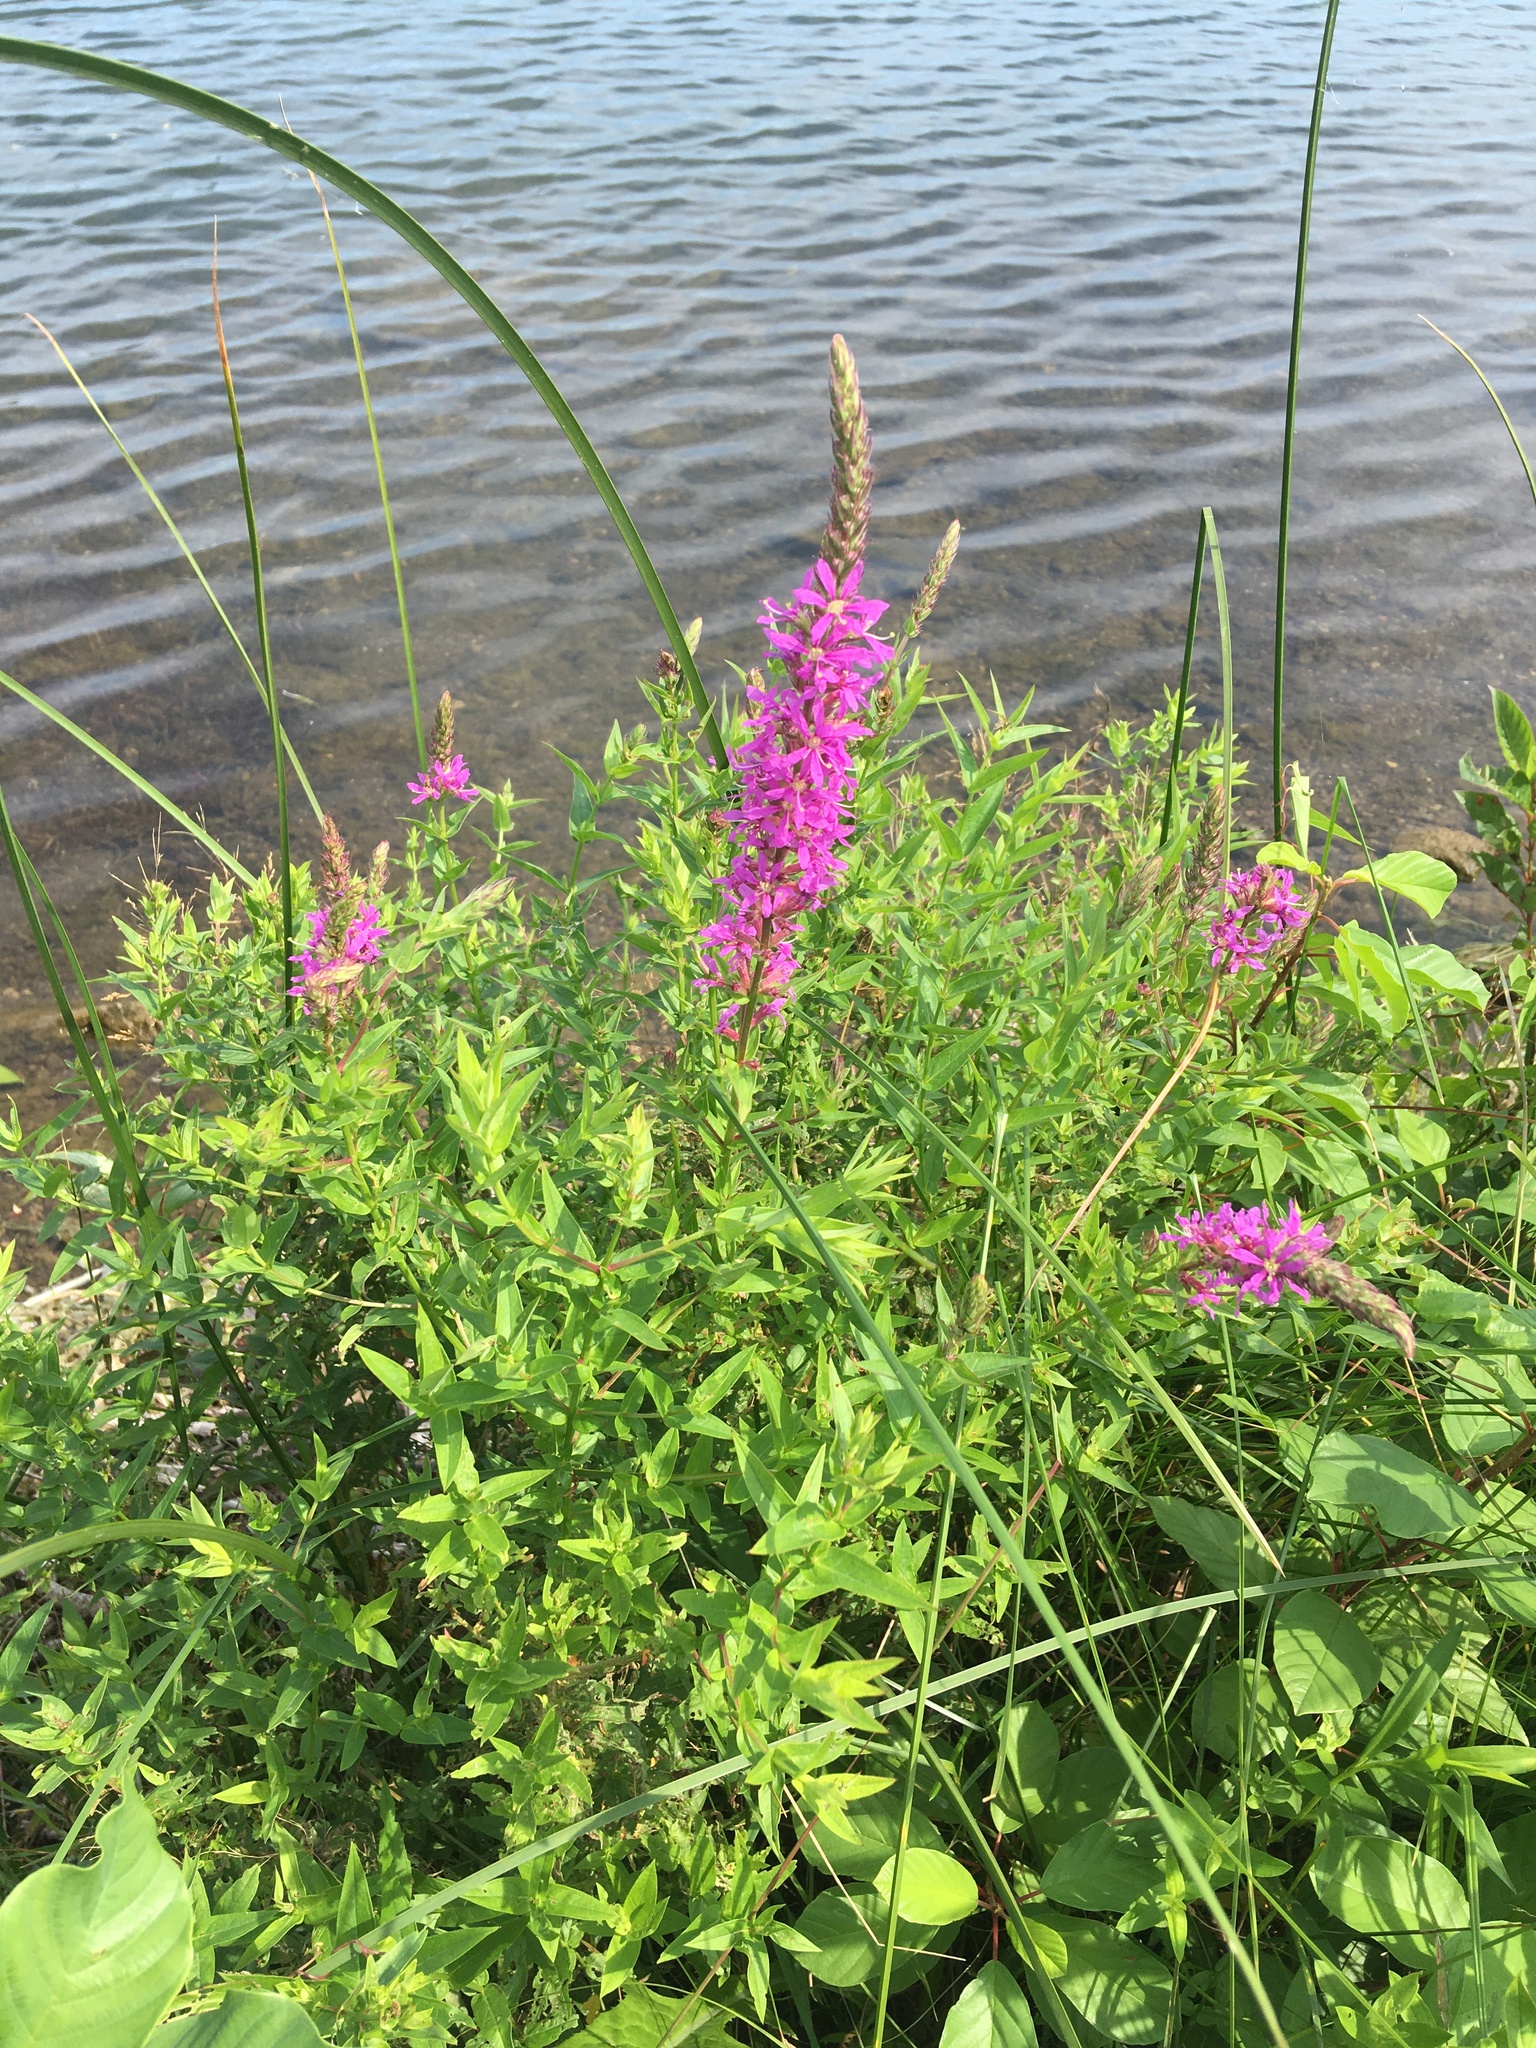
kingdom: Plantae
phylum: Tracheophyta
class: Magnoliopsida
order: Myrtales
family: Lythraceae
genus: Lythrum
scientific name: Lythrum salicaria
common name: Purple loosestrife
